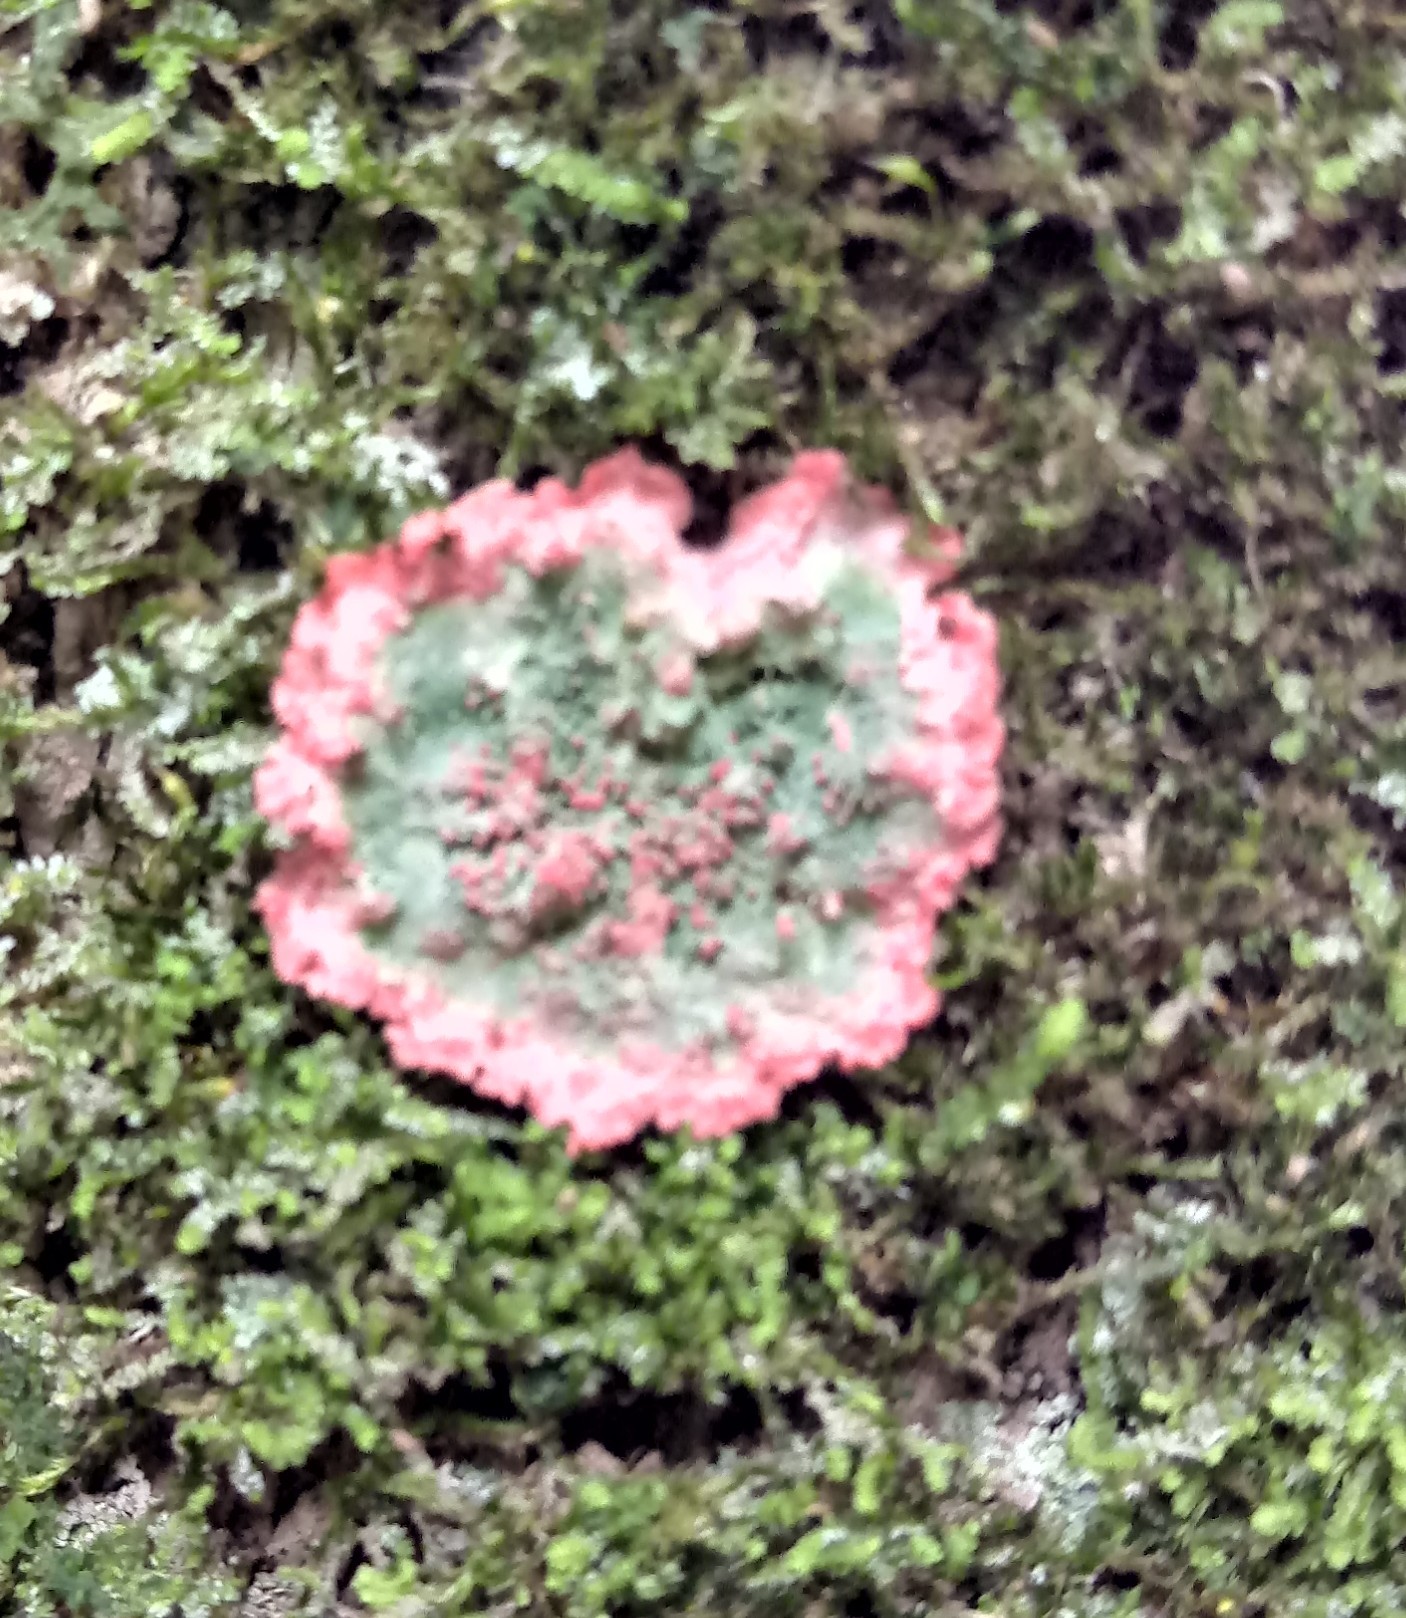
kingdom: Fungi
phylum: Ascomycota
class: Arthoniomycetes
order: Arthoniales
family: Arthoniaceae
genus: Herpothallon
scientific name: Herpothallon rubrocinctum
